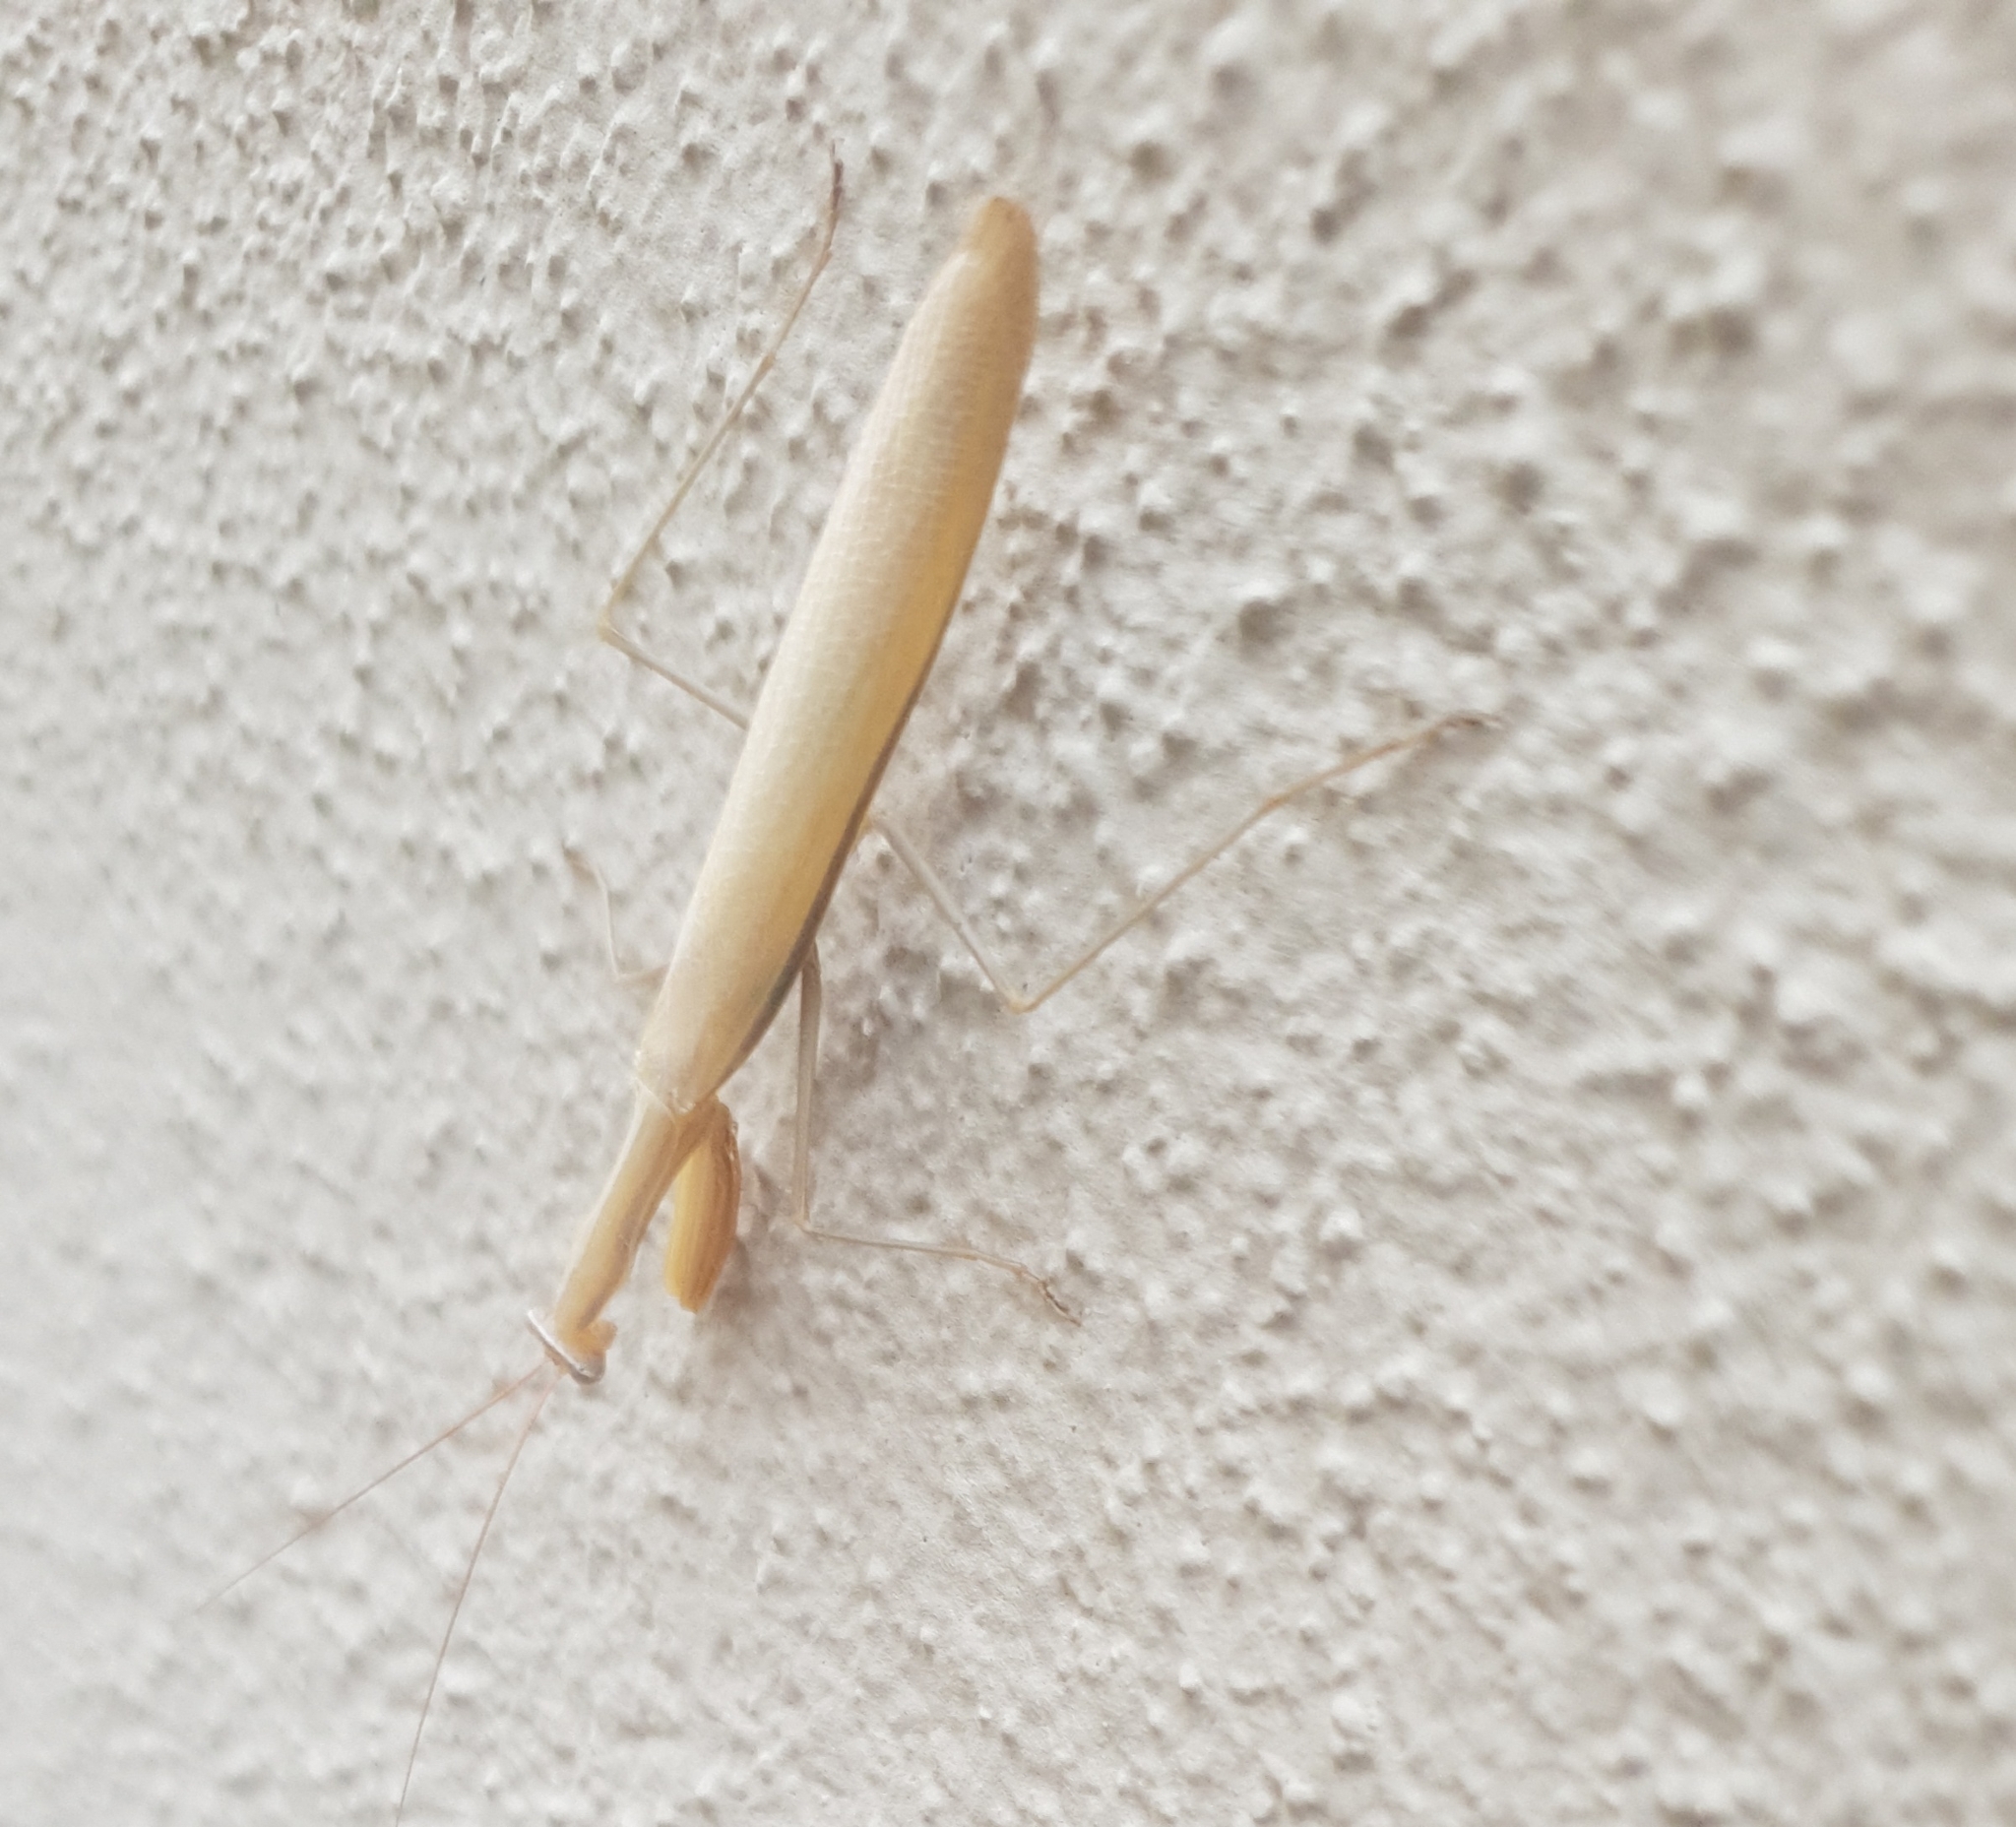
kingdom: Animalia
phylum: Arthropoda
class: Insecta
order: Mantodea
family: Mantidae
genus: Mantis
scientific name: Mantis religiosa
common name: Praying mantis
